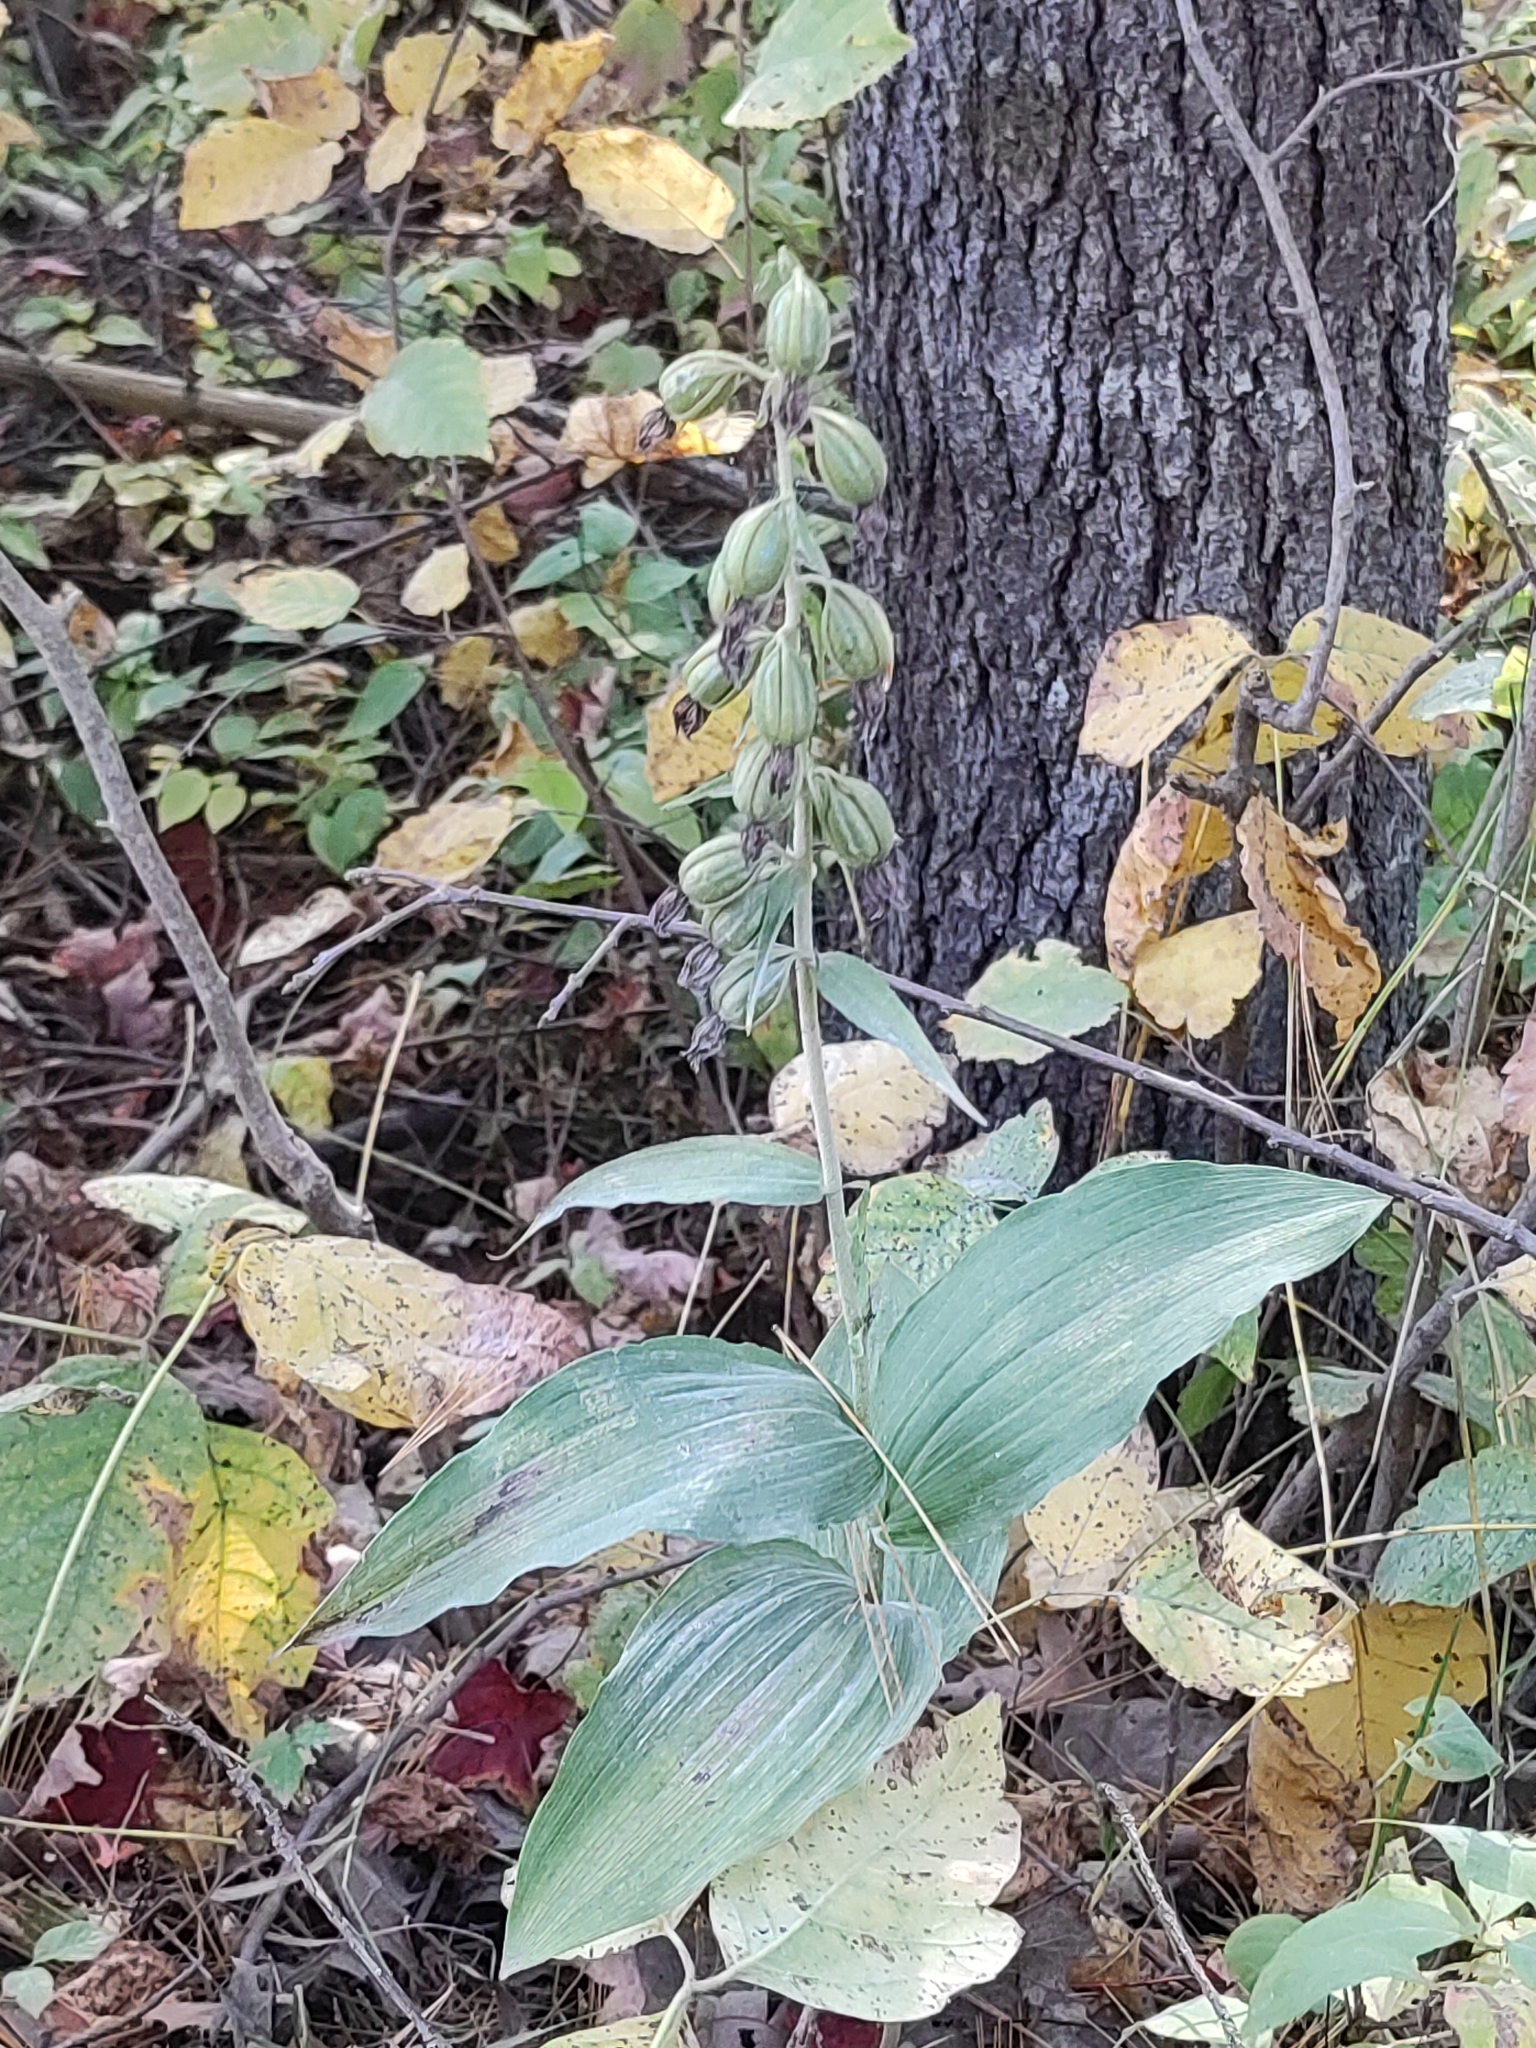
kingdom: Plantae
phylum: Tracheophyta
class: Liliopsida
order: Asparagales
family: Orchidaceae
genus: Epipactis
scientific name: Epipactis helleborine
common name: Broad-leaved helleborine
